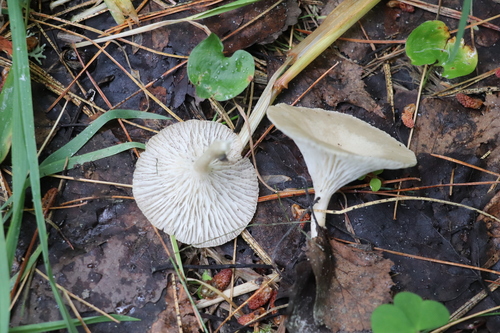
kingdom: Fungi
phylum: Basidiomycota
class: Agaricomycetes
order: Agaricales
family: Tricholomataceae
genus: Infundibulicybe
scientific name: Infundibulicybe gibba
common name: Common funnel
